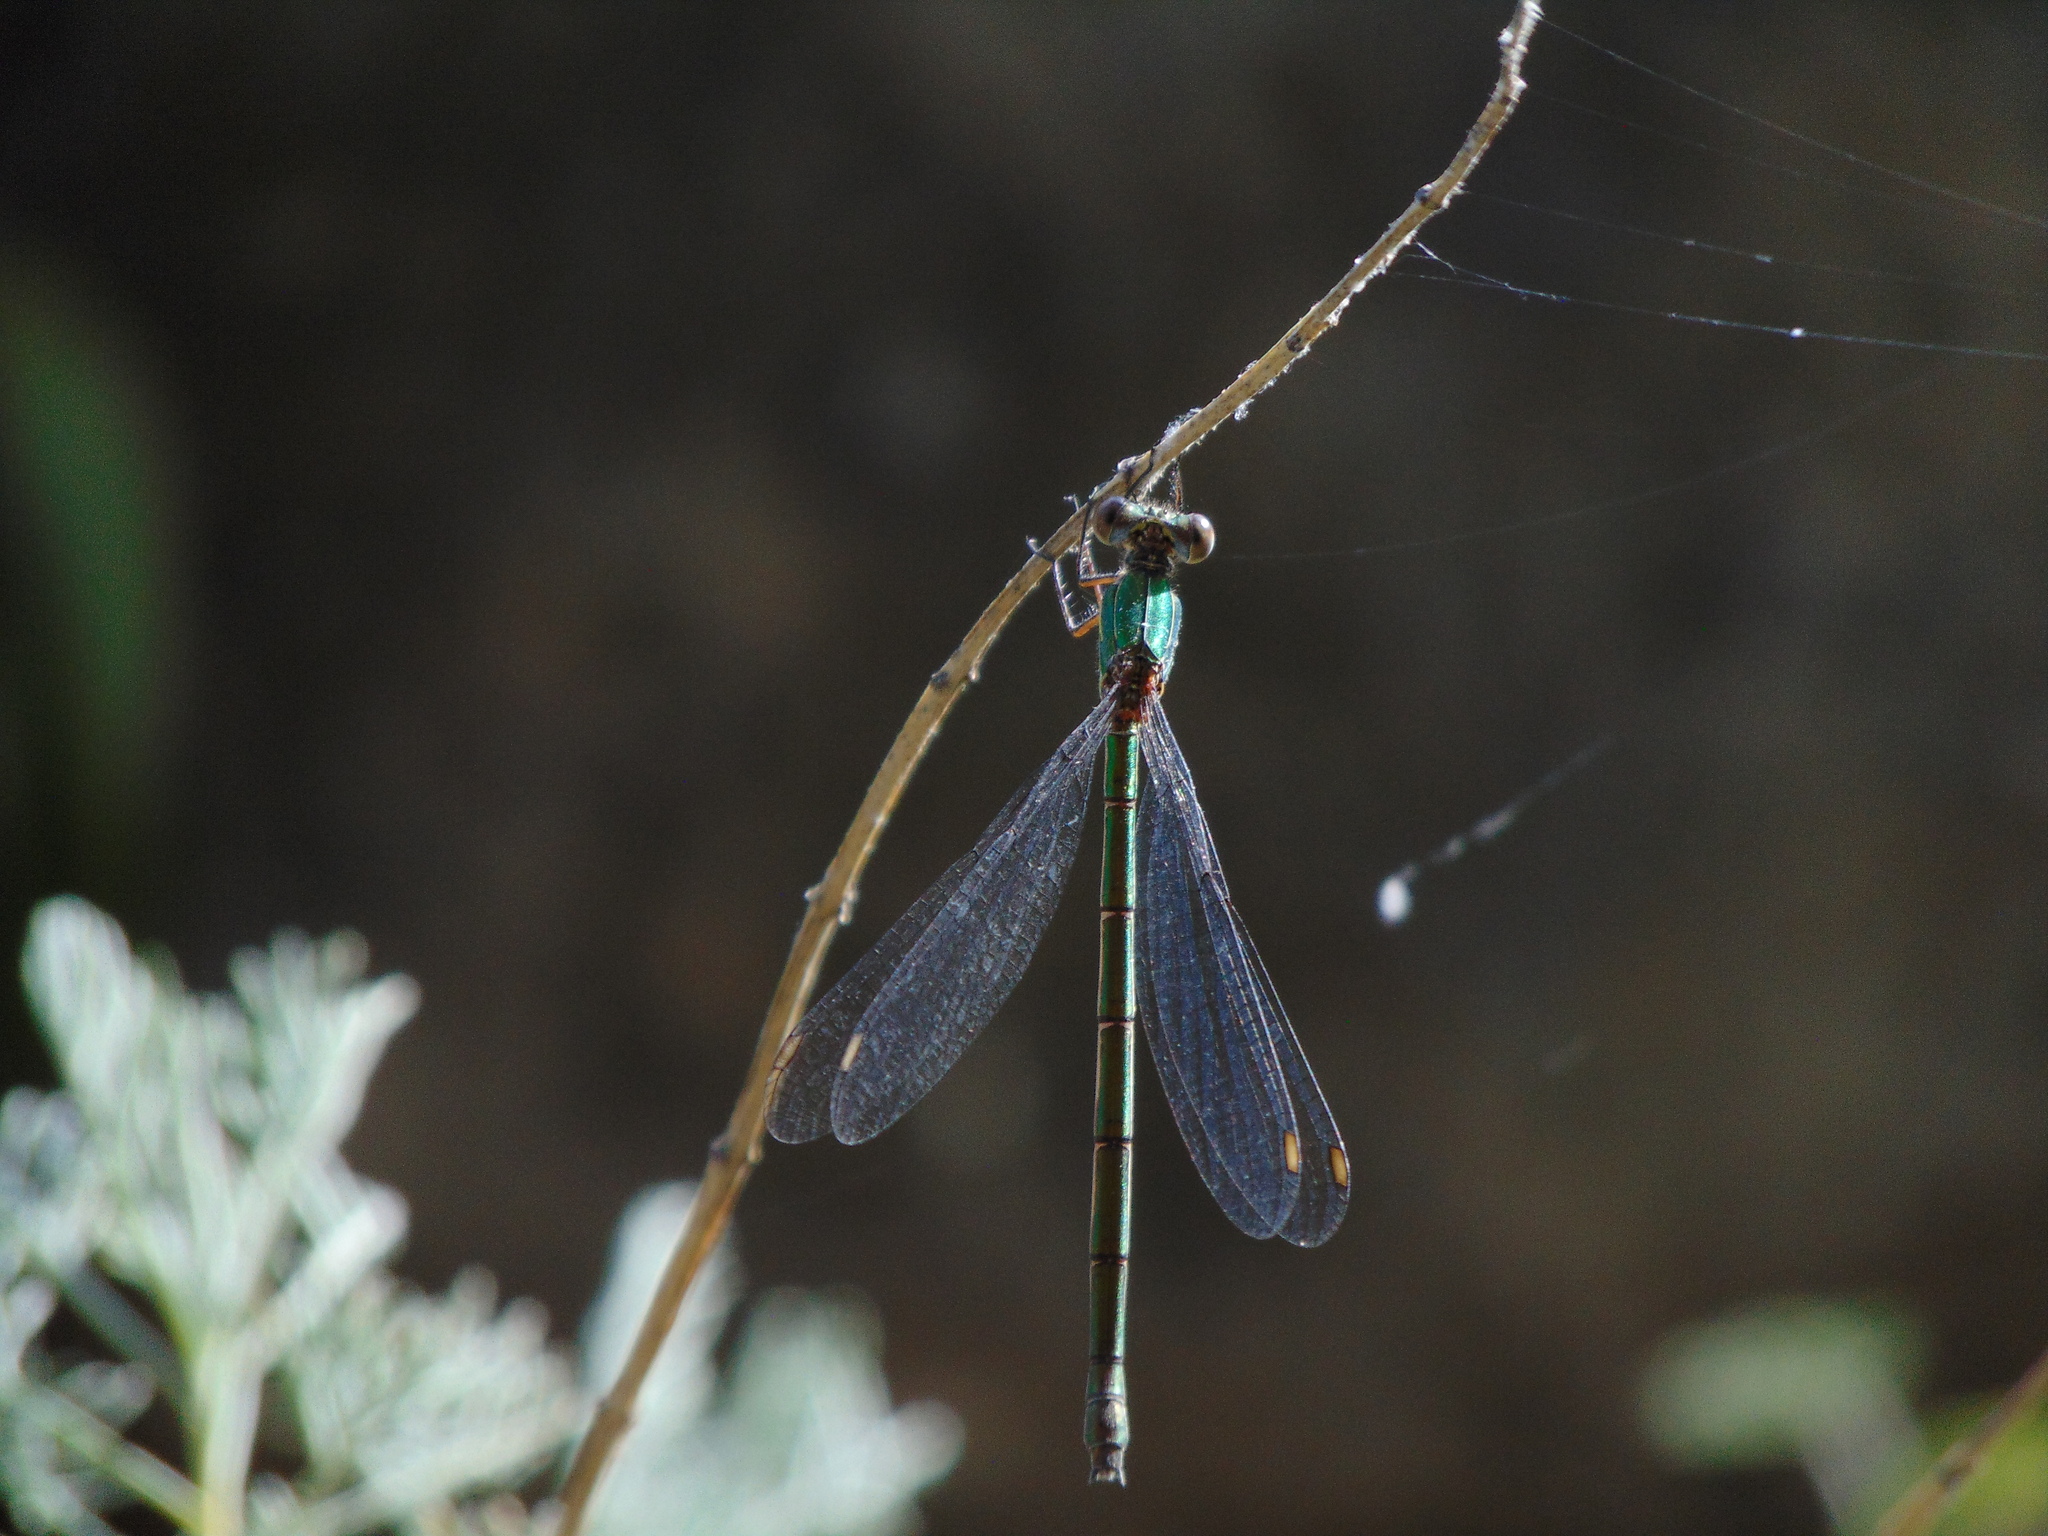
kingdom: Animalia
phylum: Arthropoda
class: Insecta
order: Odonata
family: Lestidae
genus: Chalcolestes
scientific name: Chalcolestes viridis
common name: Green emerald damselfly
